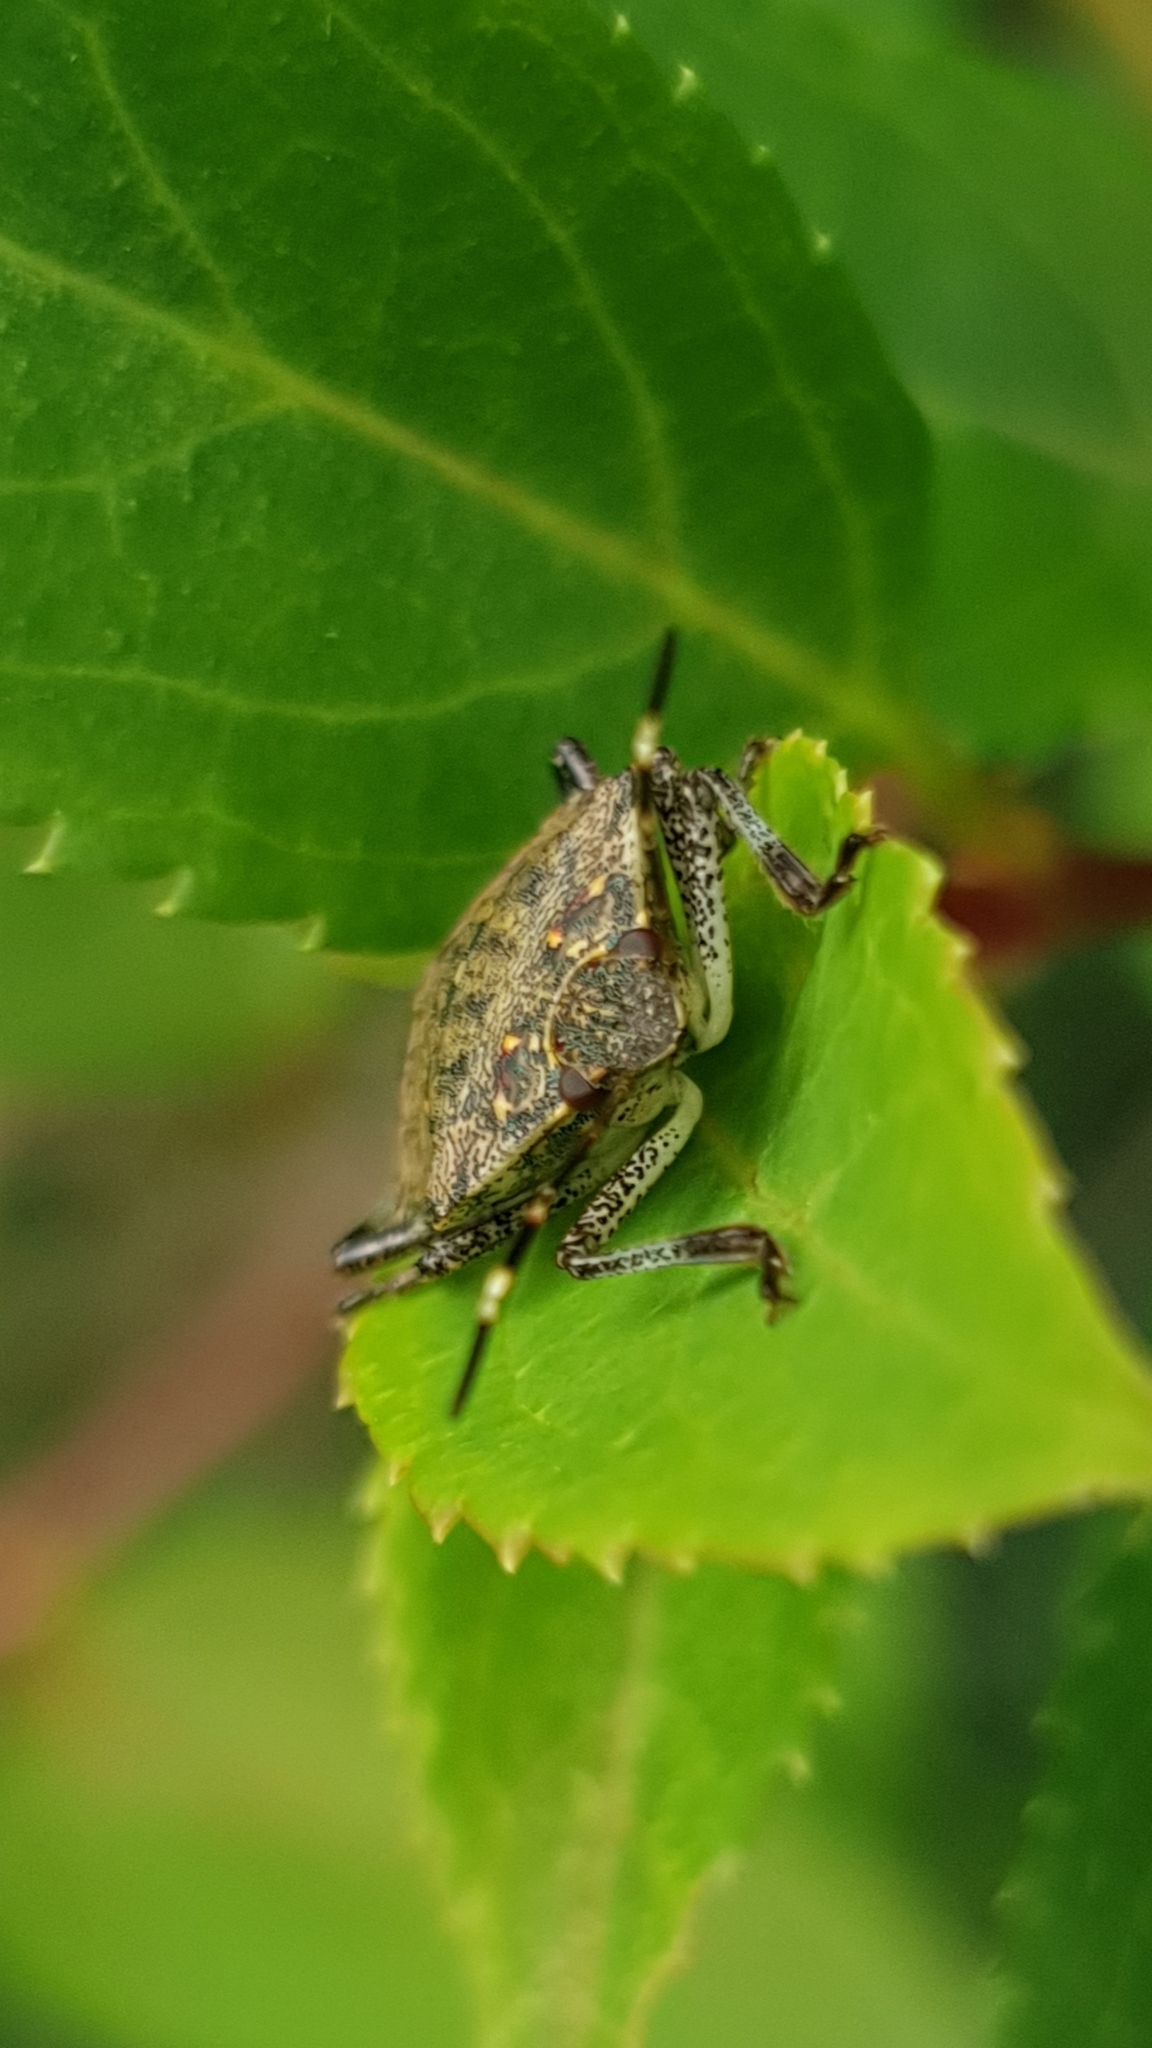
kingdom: Animalia
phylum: Arthropoda
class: Insecta
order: Hemiptera
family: Pentatomidae
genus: Halyomorpha
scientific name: Halyomorpha halys
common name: Brown marmorated stink bug
